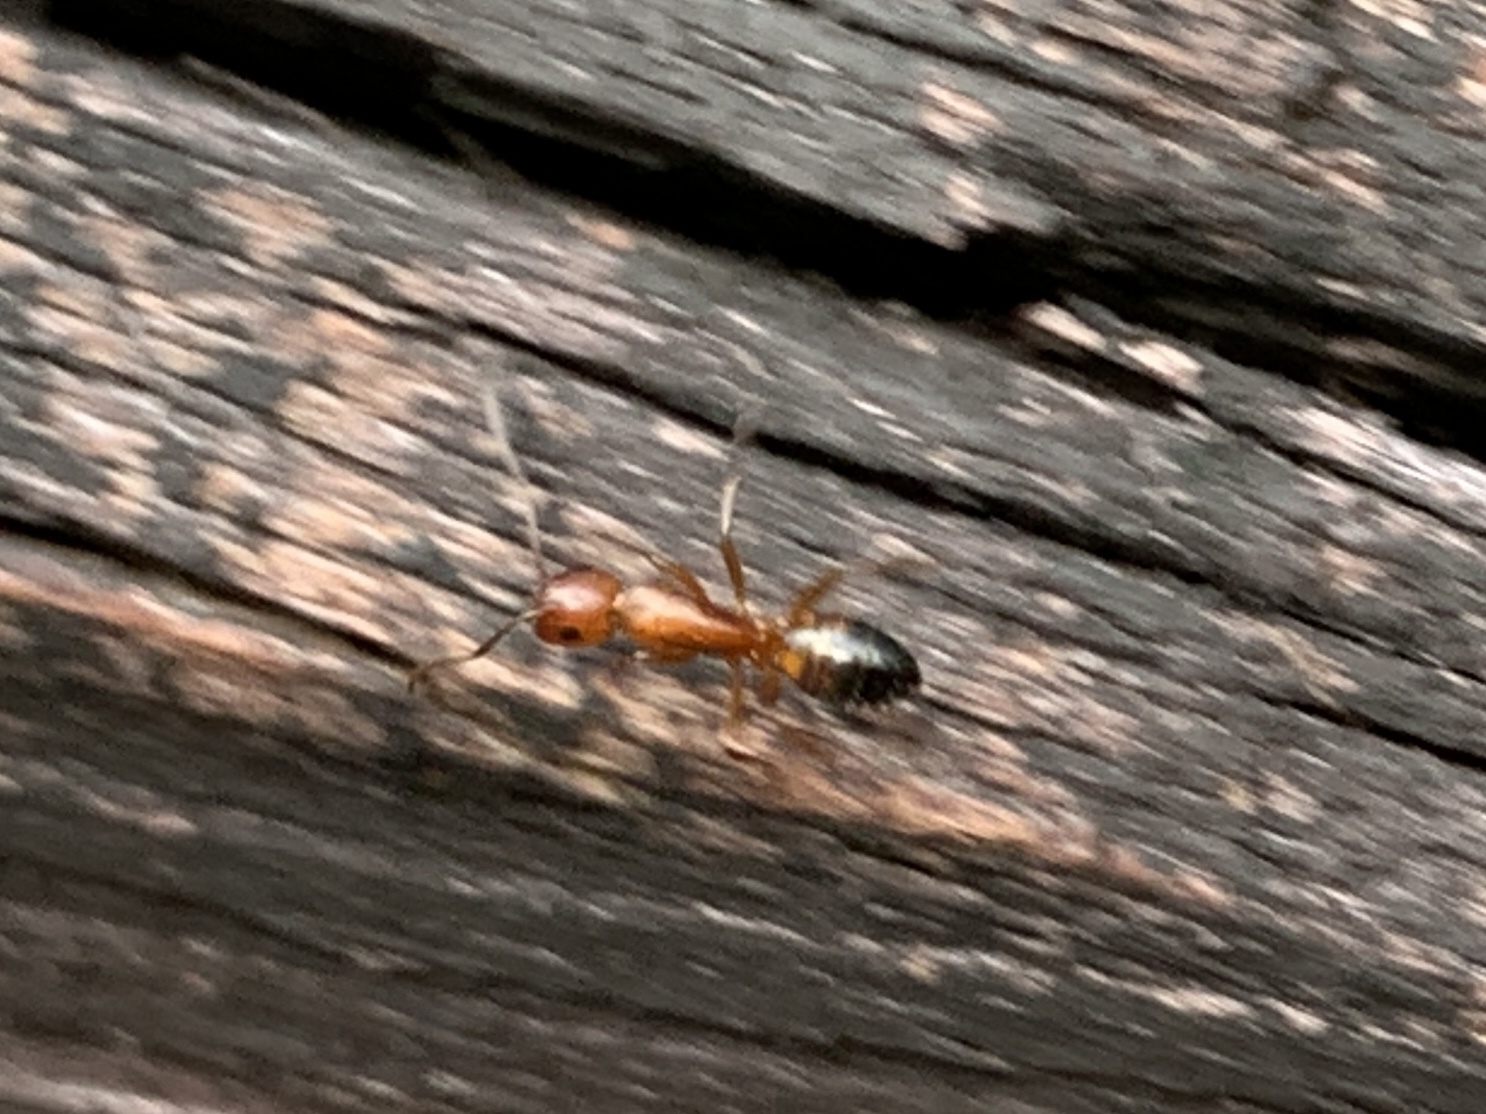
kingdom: Animalia
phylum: Arthropoda
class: Insecta
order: Hymenoptera
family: Formicidae
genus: Camponotus
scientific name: Camponotus snellingi
